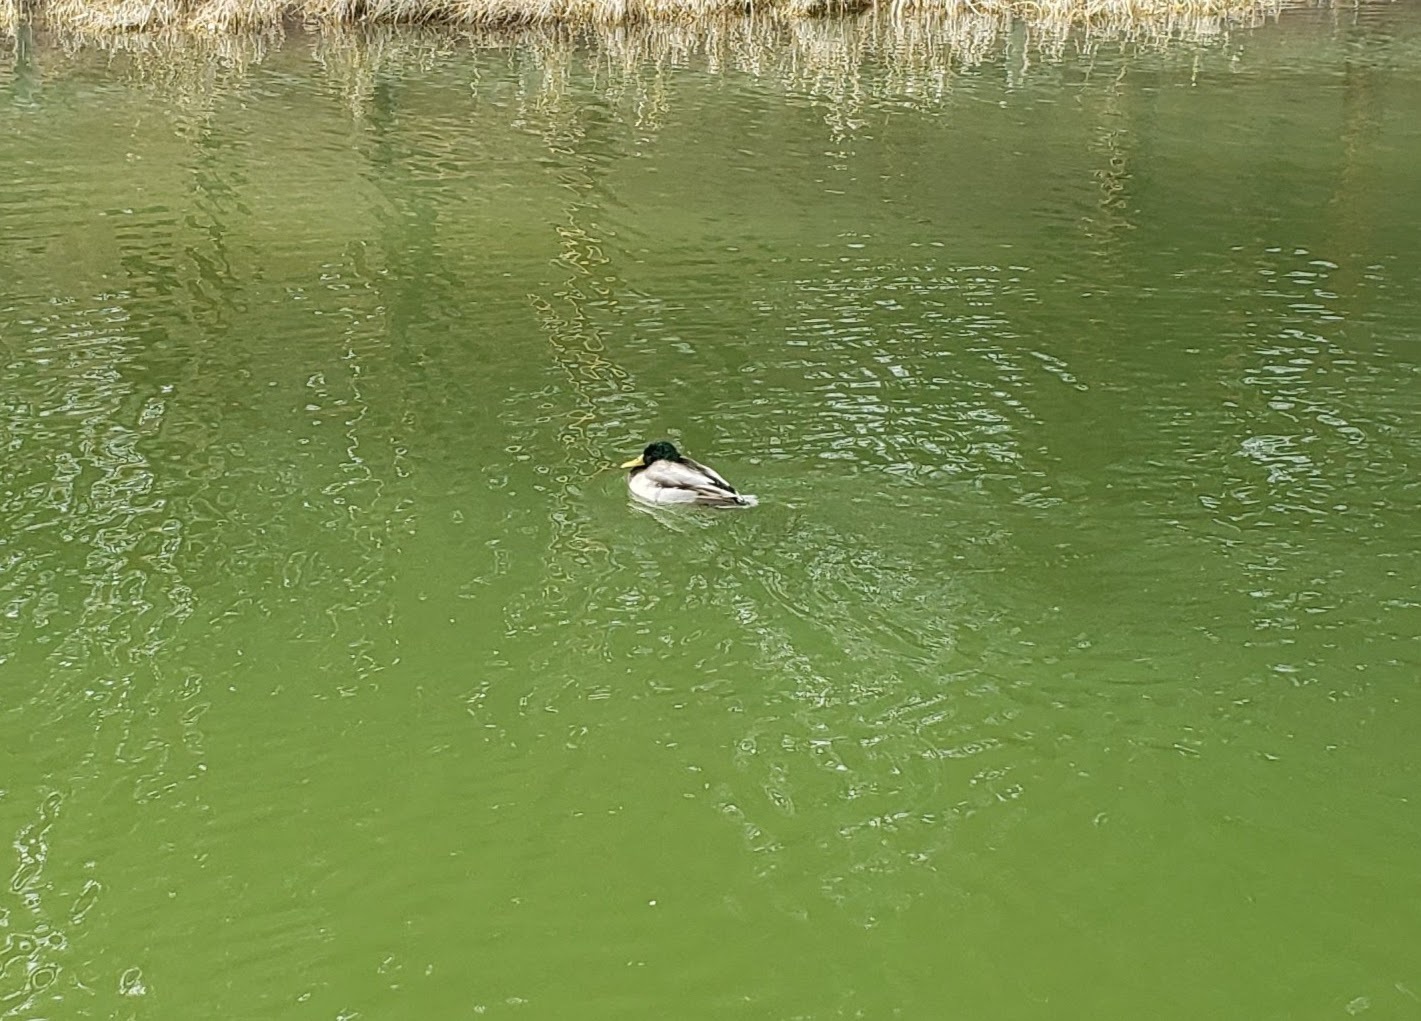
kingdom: Animalia
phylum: Chordata
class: Aves
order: Anseriformes
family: Anatidae
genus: Anas
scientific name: Anas platyrhynchos
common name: Mallard
